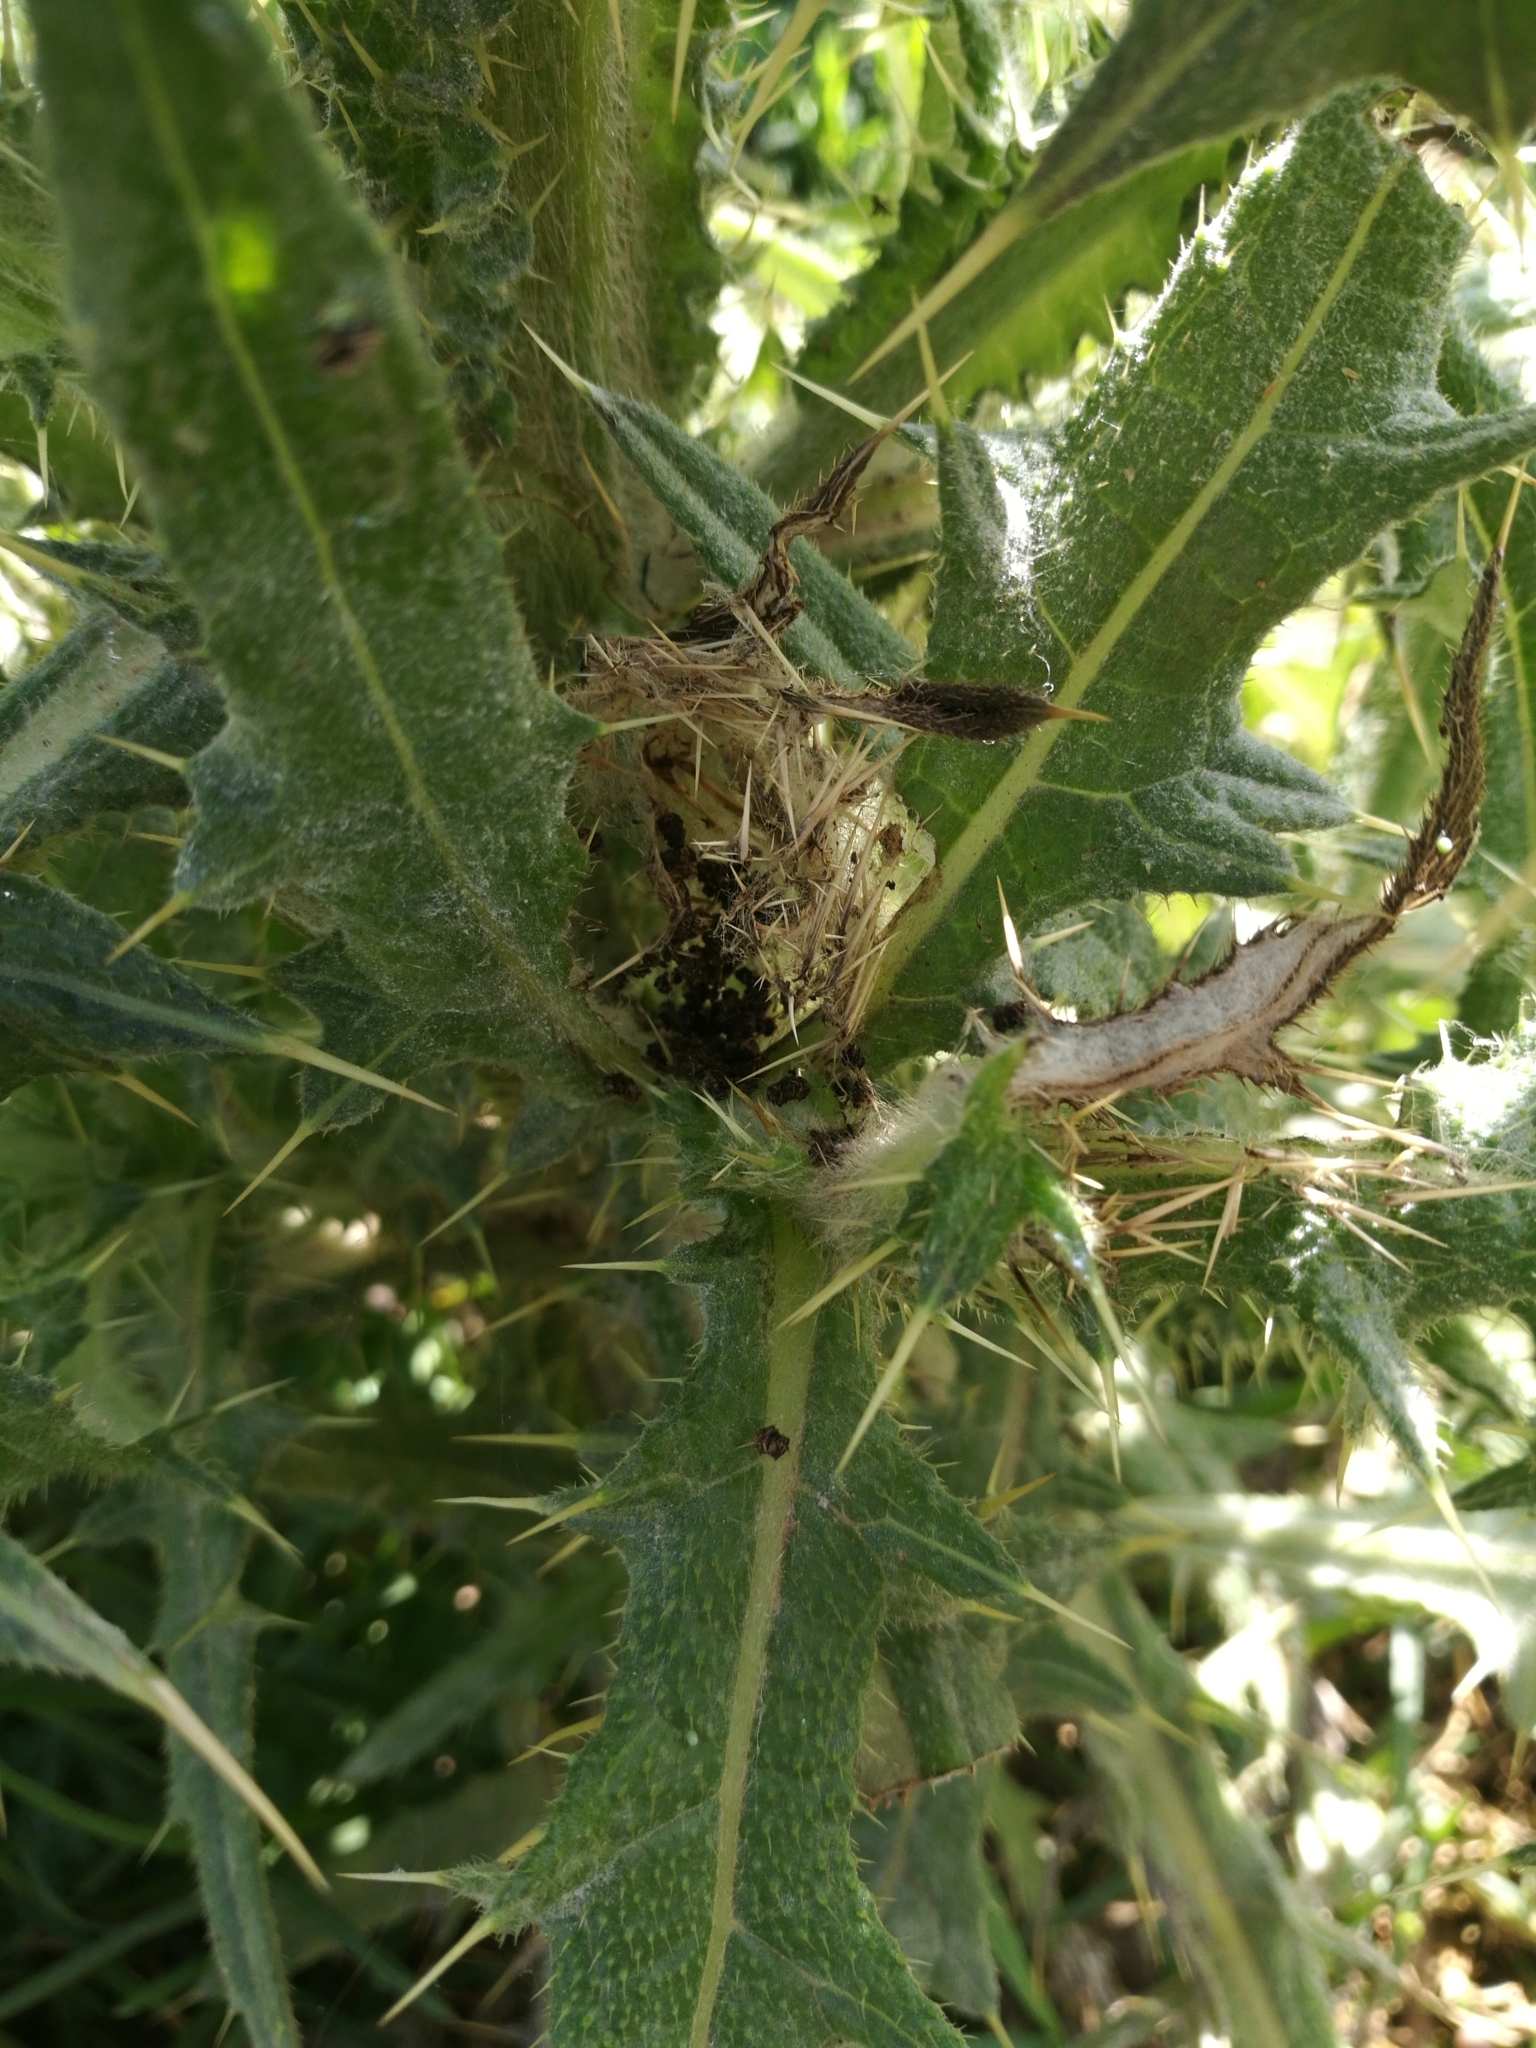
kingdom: Animalia
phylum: Arthropoda
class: Insecta
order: Lepidoptera
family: Nymphalidae
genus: Vanessa
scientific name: Vanessa cardui
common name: Painted lady
